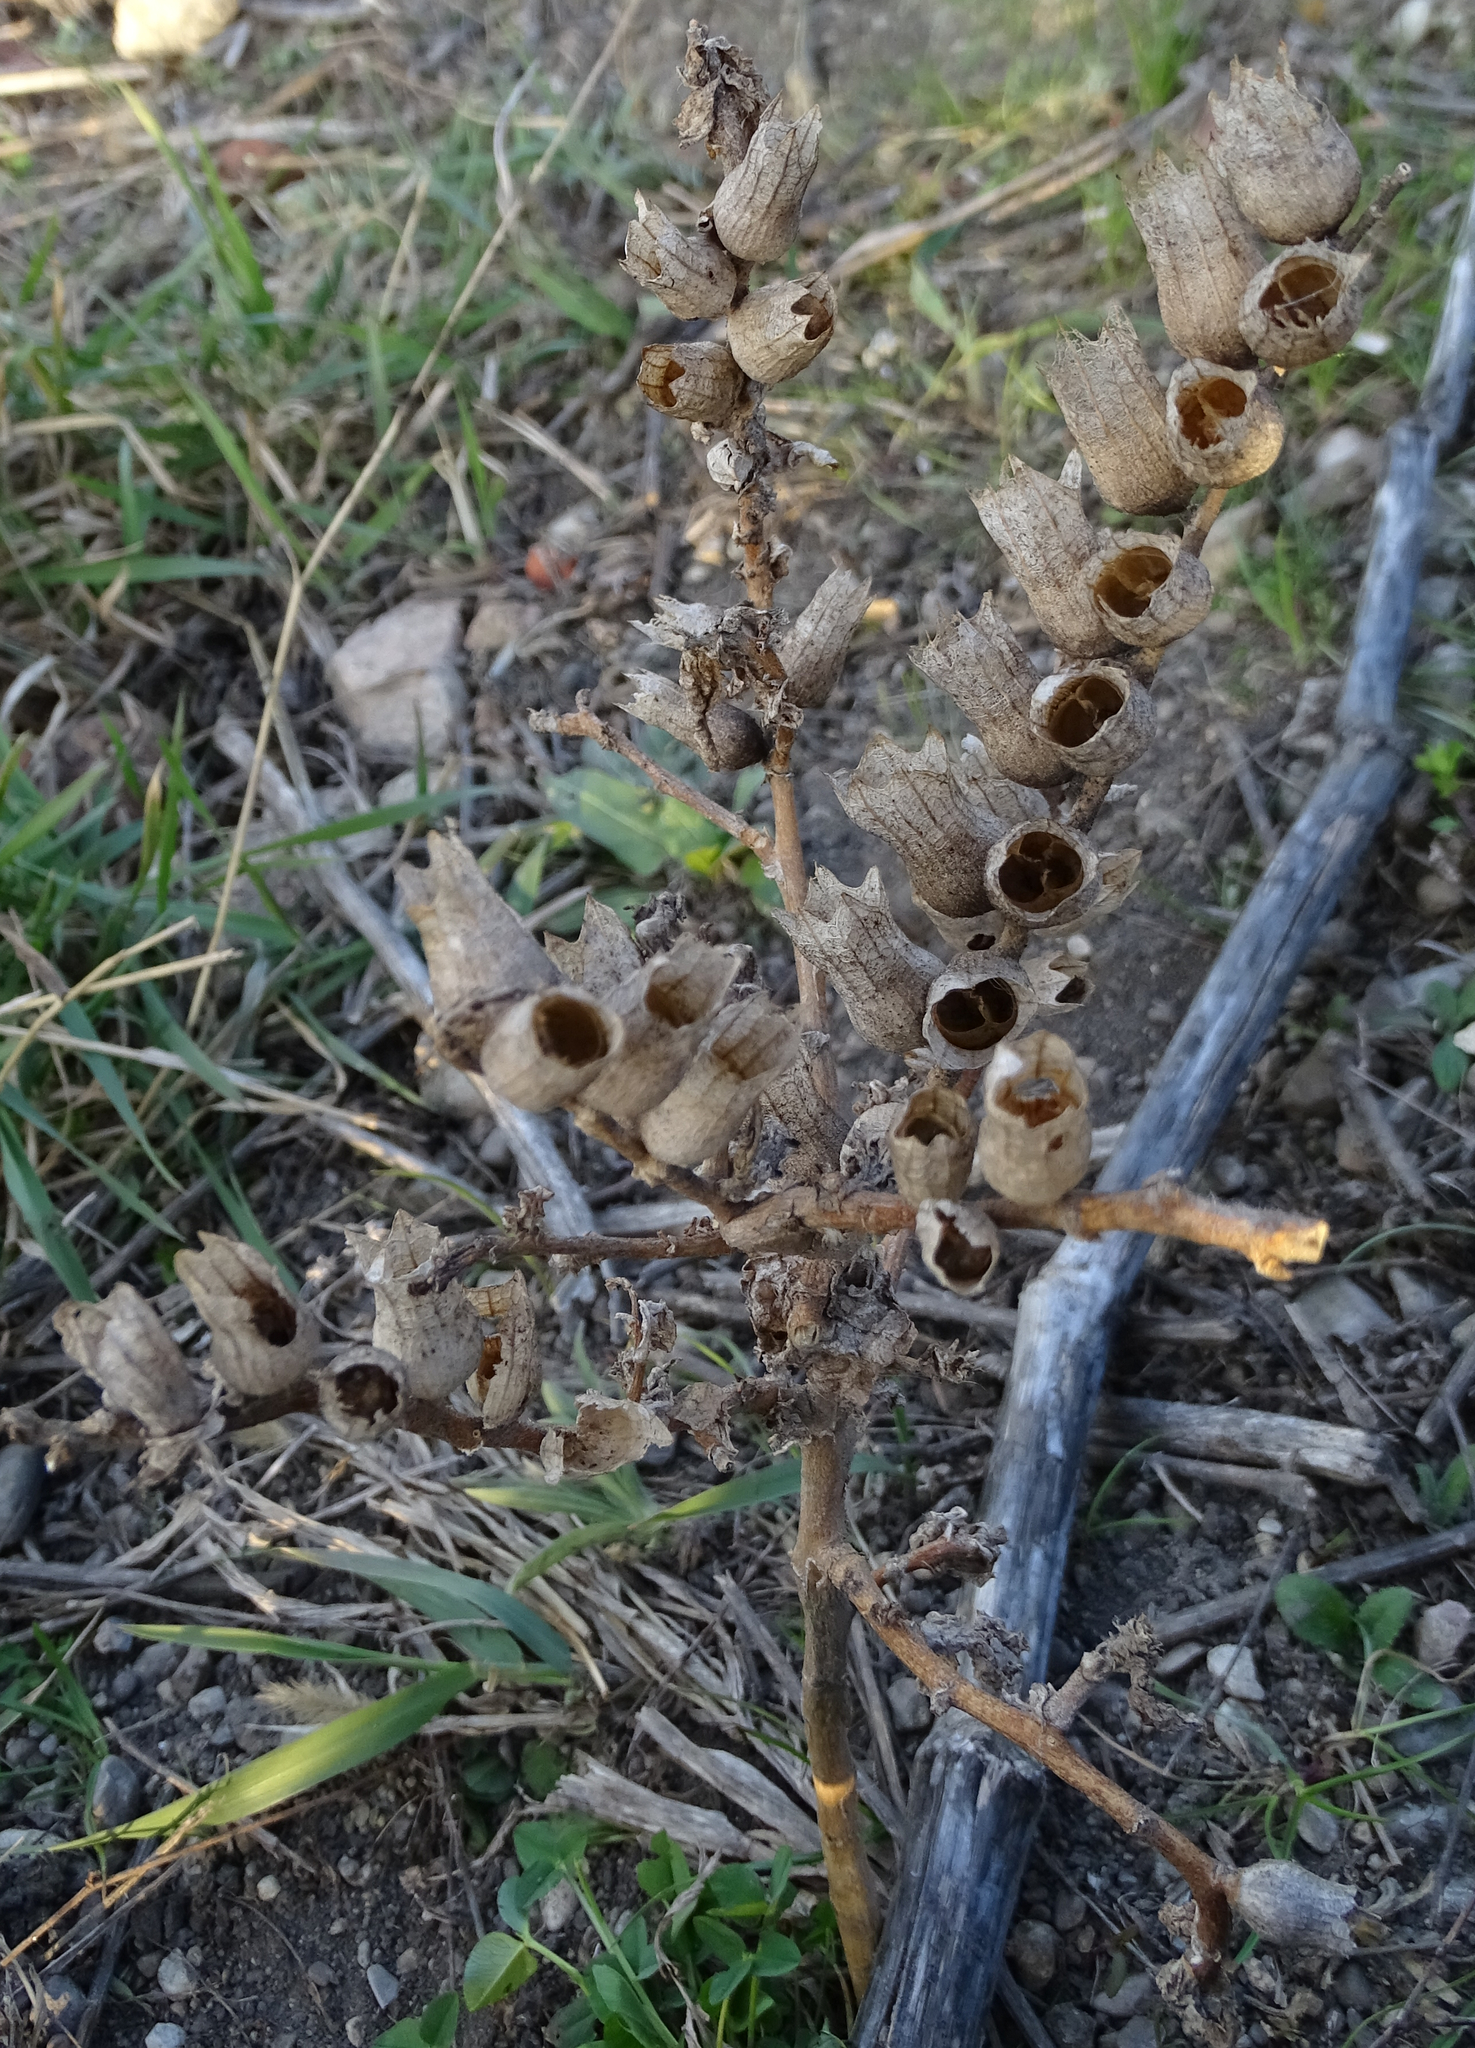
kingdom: Plantae
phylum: Tracheophyta
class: Magnoliopsida
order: Solanales
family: Solanaceae
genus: Hyoscyamus
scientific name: Hyoscyamus niger
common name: Henbane
